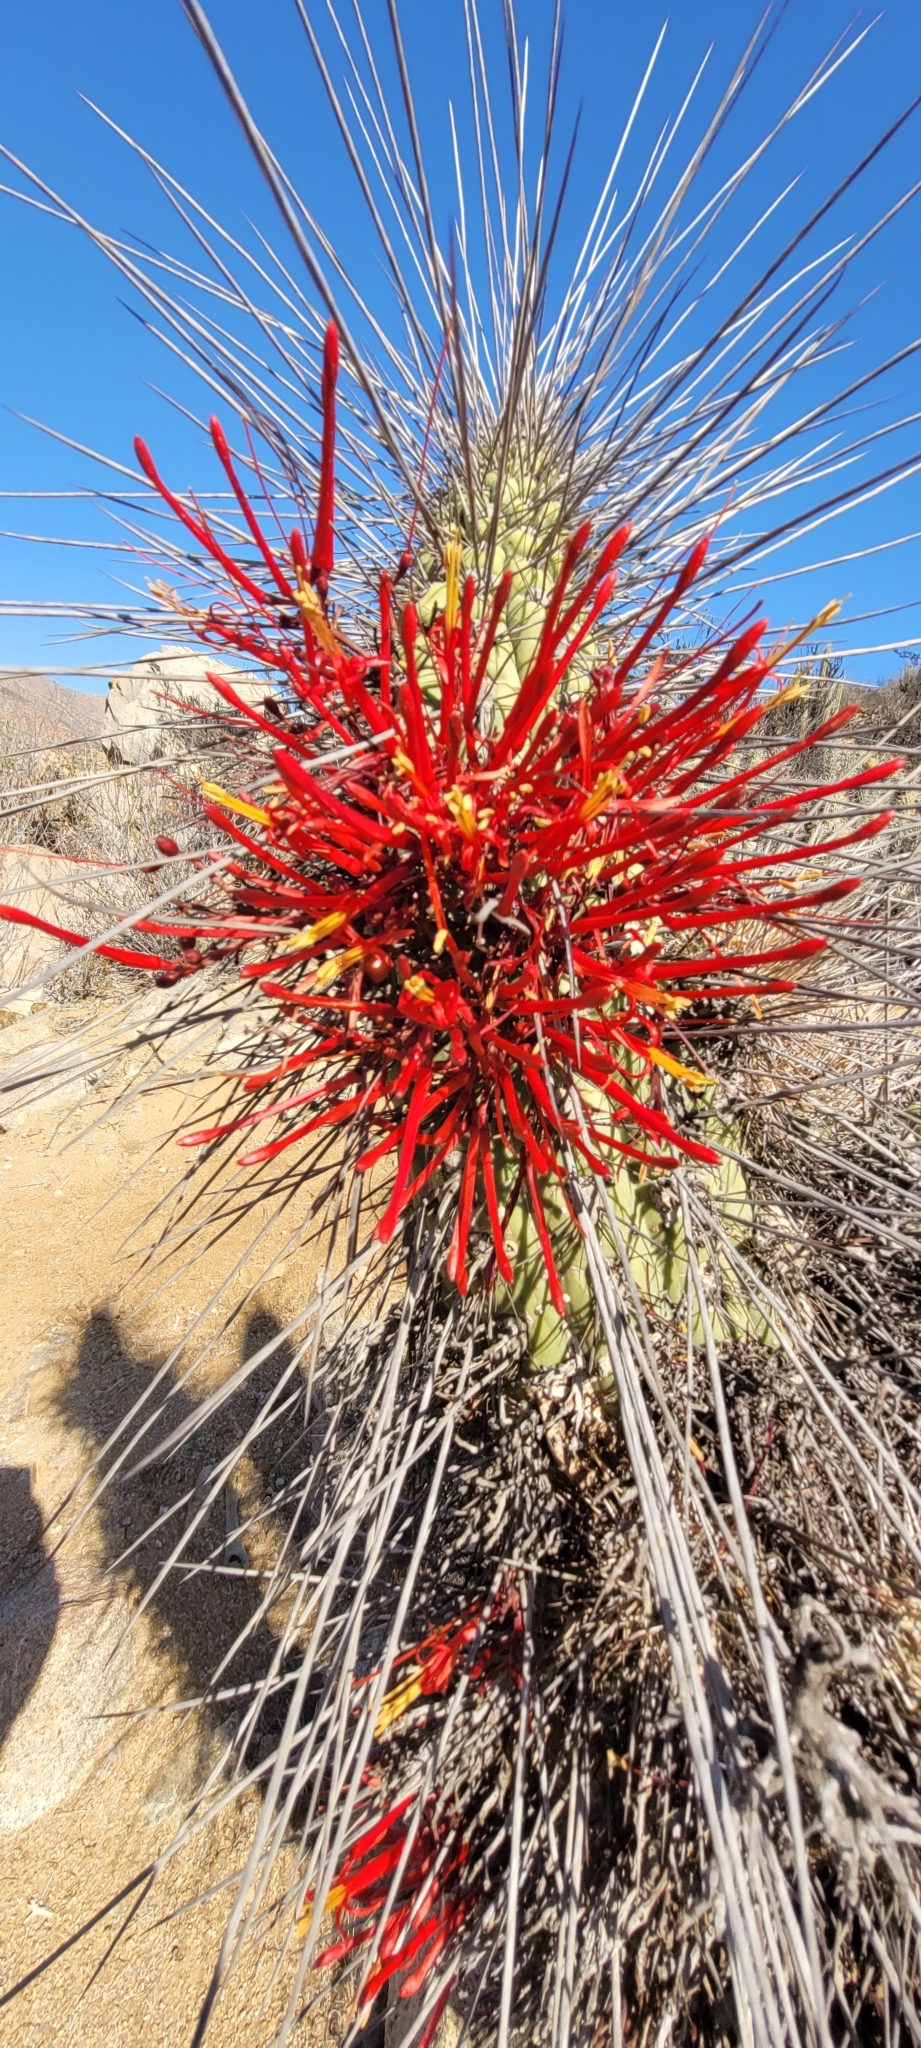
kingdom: Plantae
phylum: Tracheophyta
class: Magnoliopsida
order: Santalales
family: Loranthaceae
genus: Tristerix
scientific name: Tristerix aphyllus
